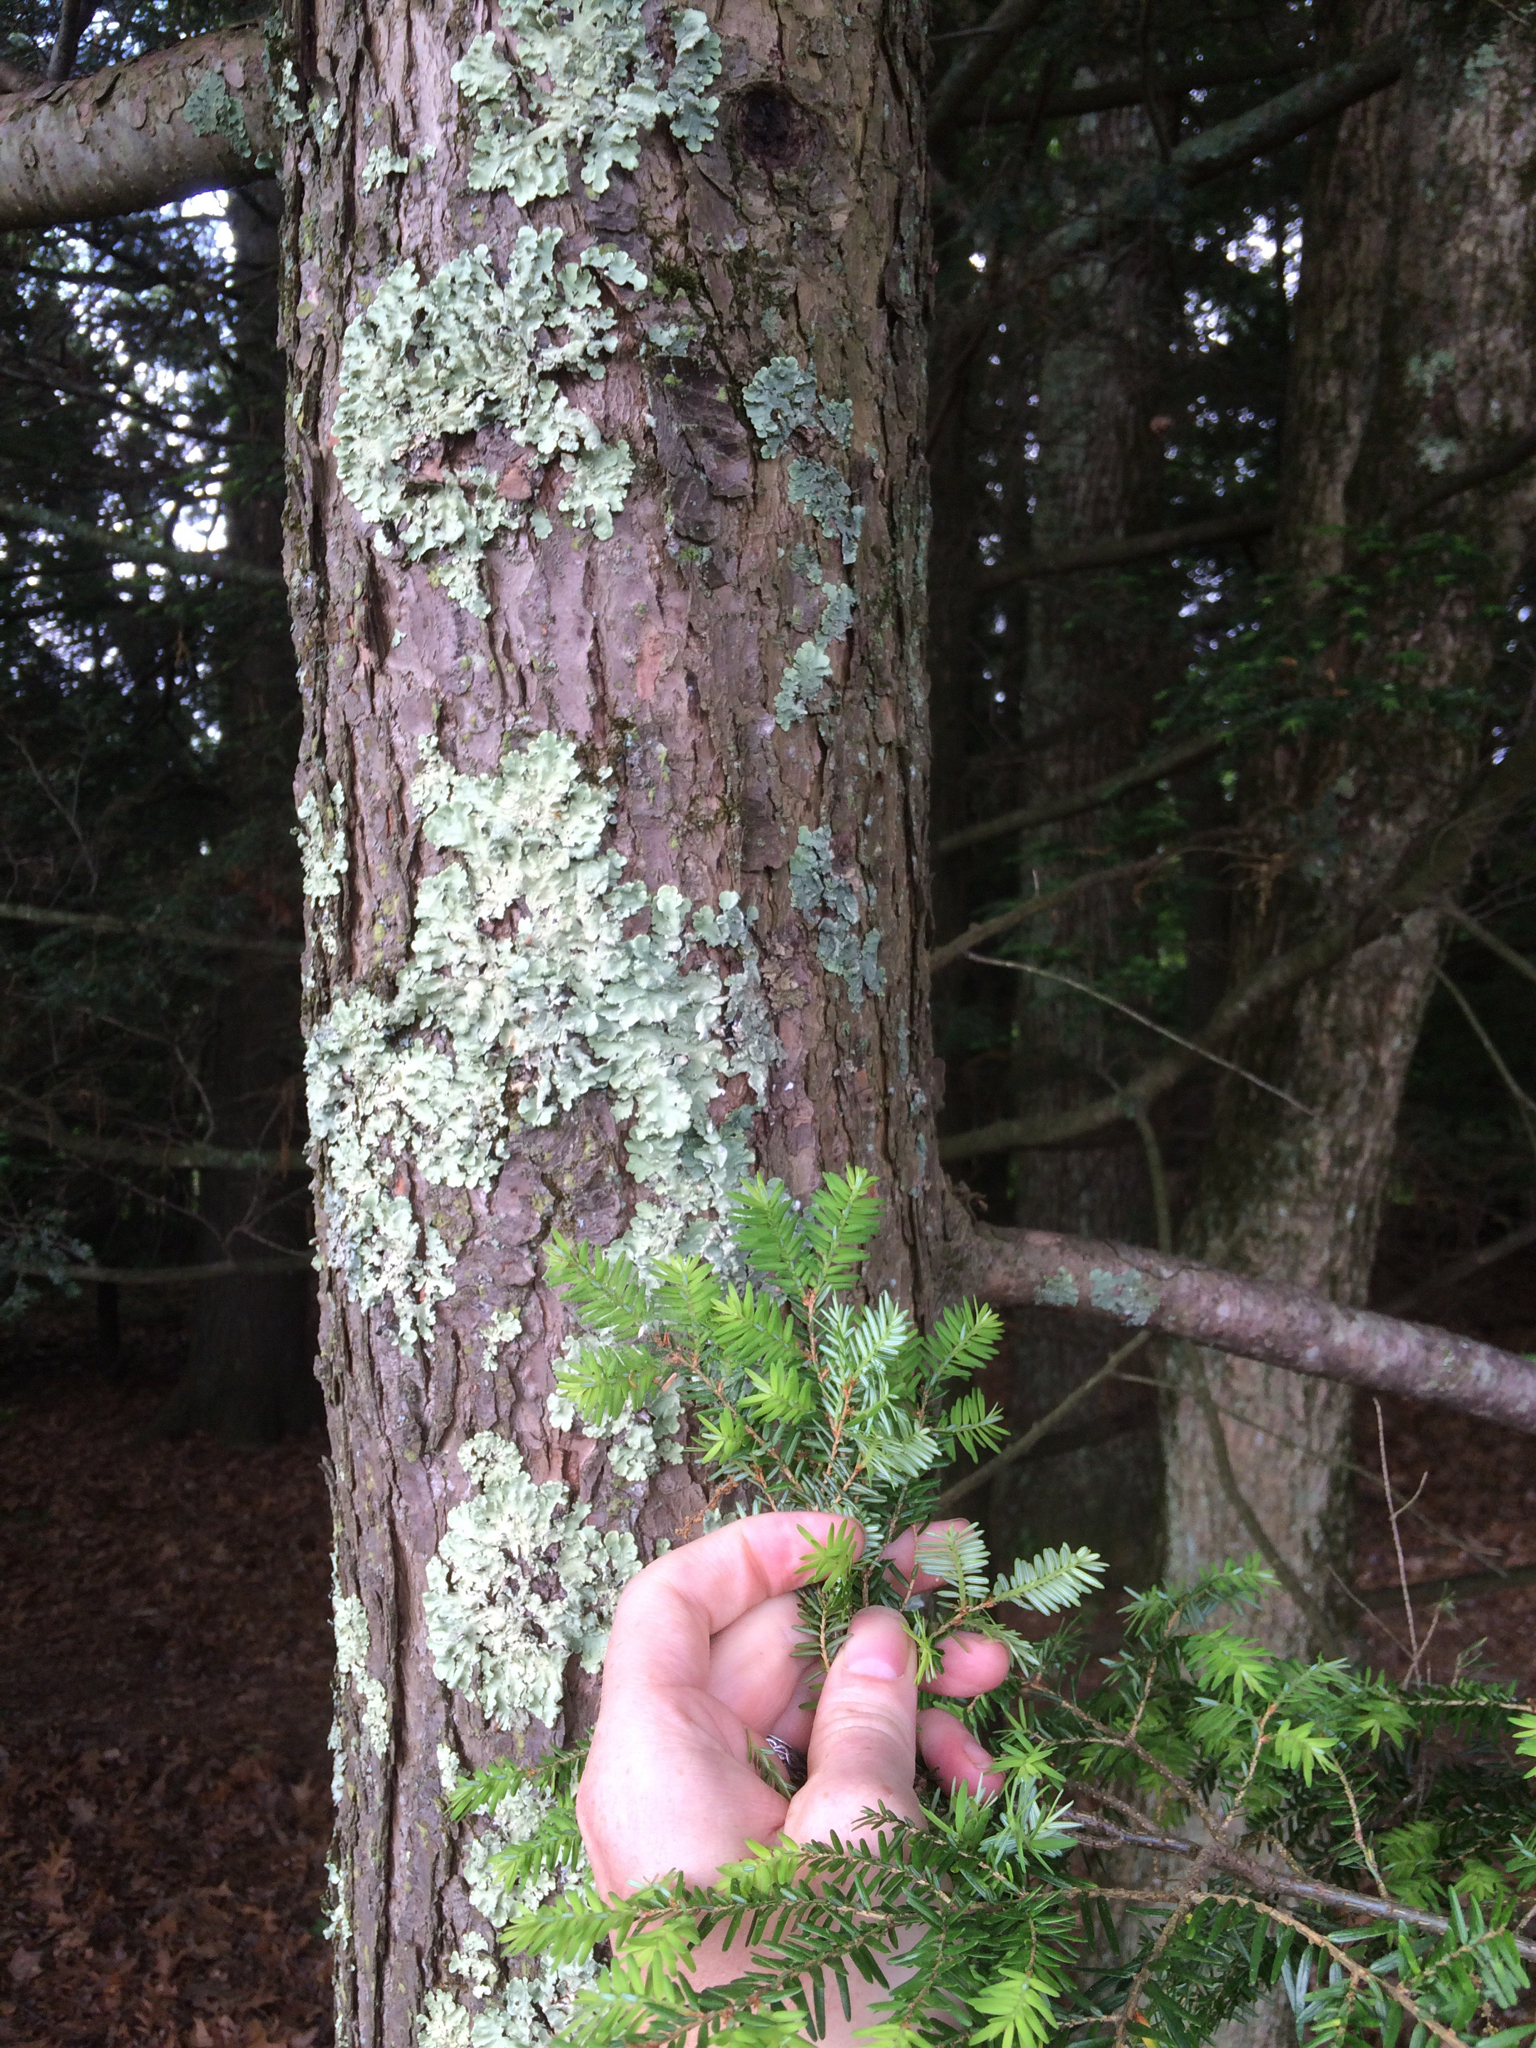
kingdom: Plantae
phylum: Tracheophyta
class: Pinopsida
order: Pinales
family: Pinaceae
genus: Tsuga
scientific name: Tsuga canadensis
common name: Eastern hemlock
